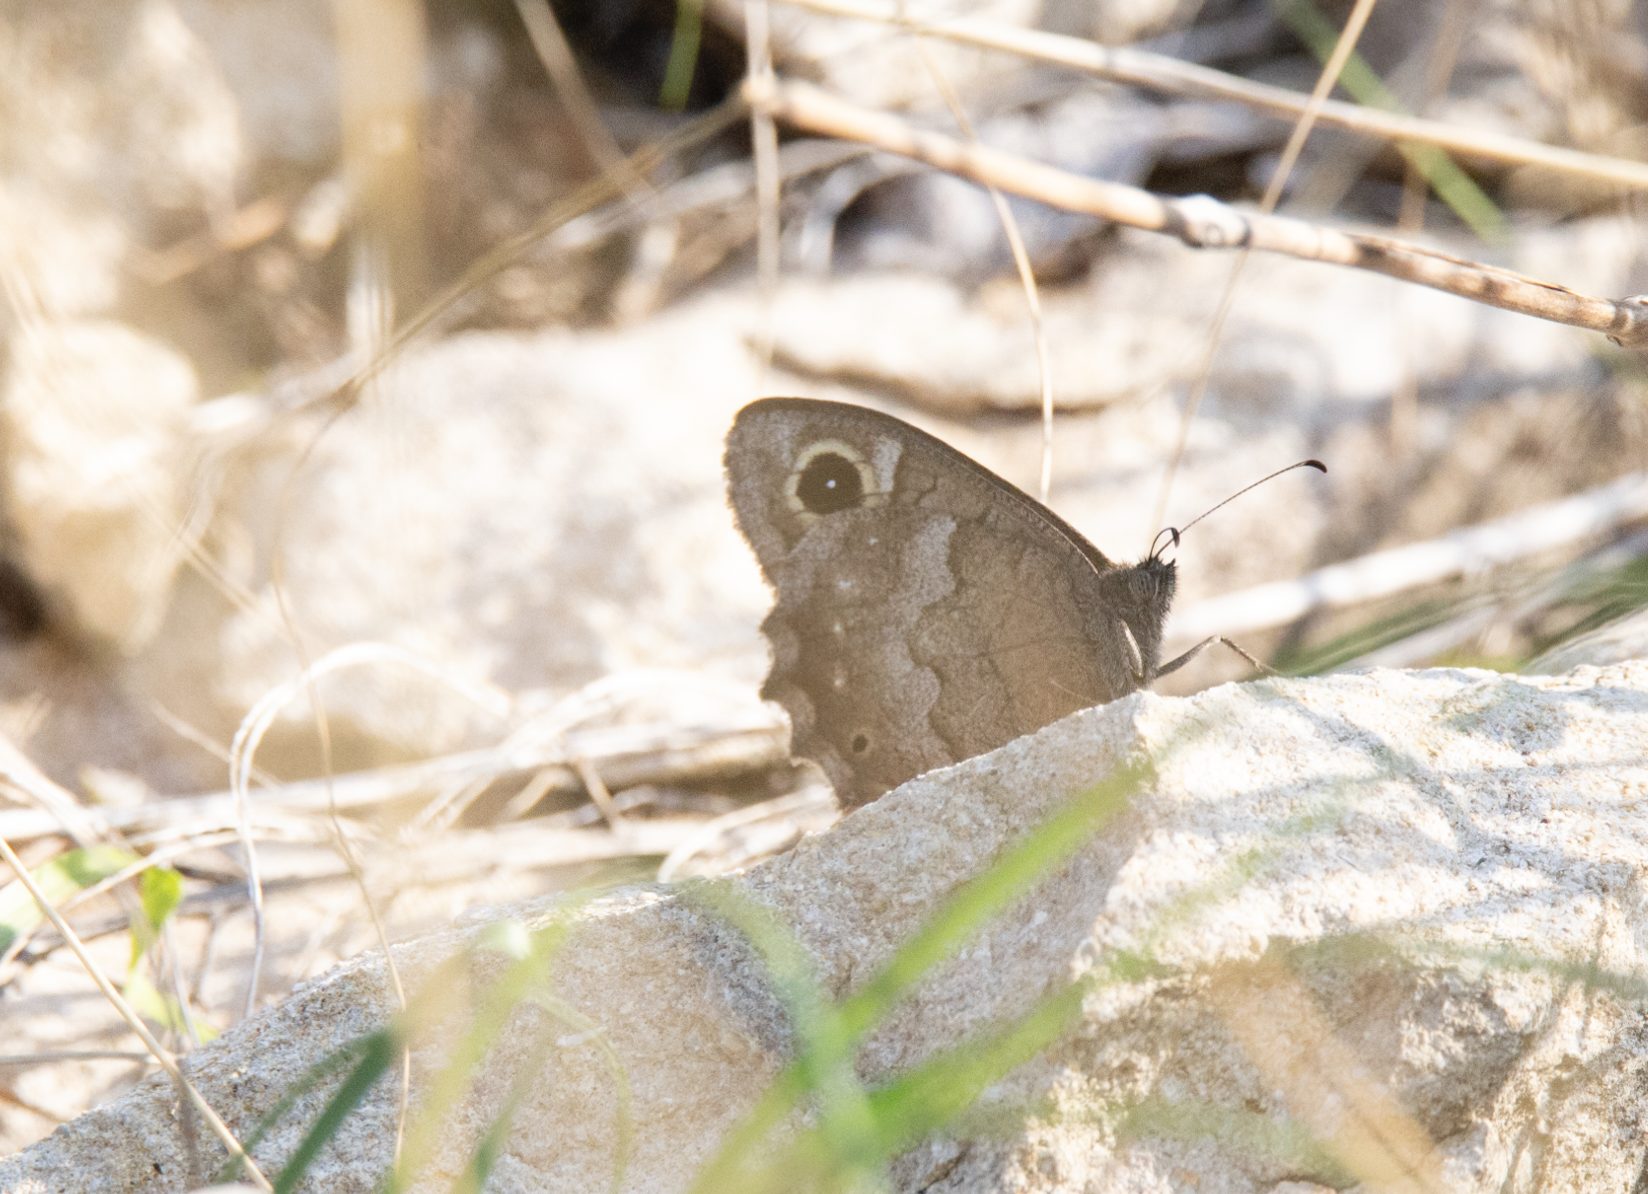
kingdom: Animalia
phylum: Arthropoda
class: Insecta
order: Lepidoptera
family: Nymphalidae
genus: Hipparchia
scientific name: Hipparchia statilinus
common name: Tree grayling
